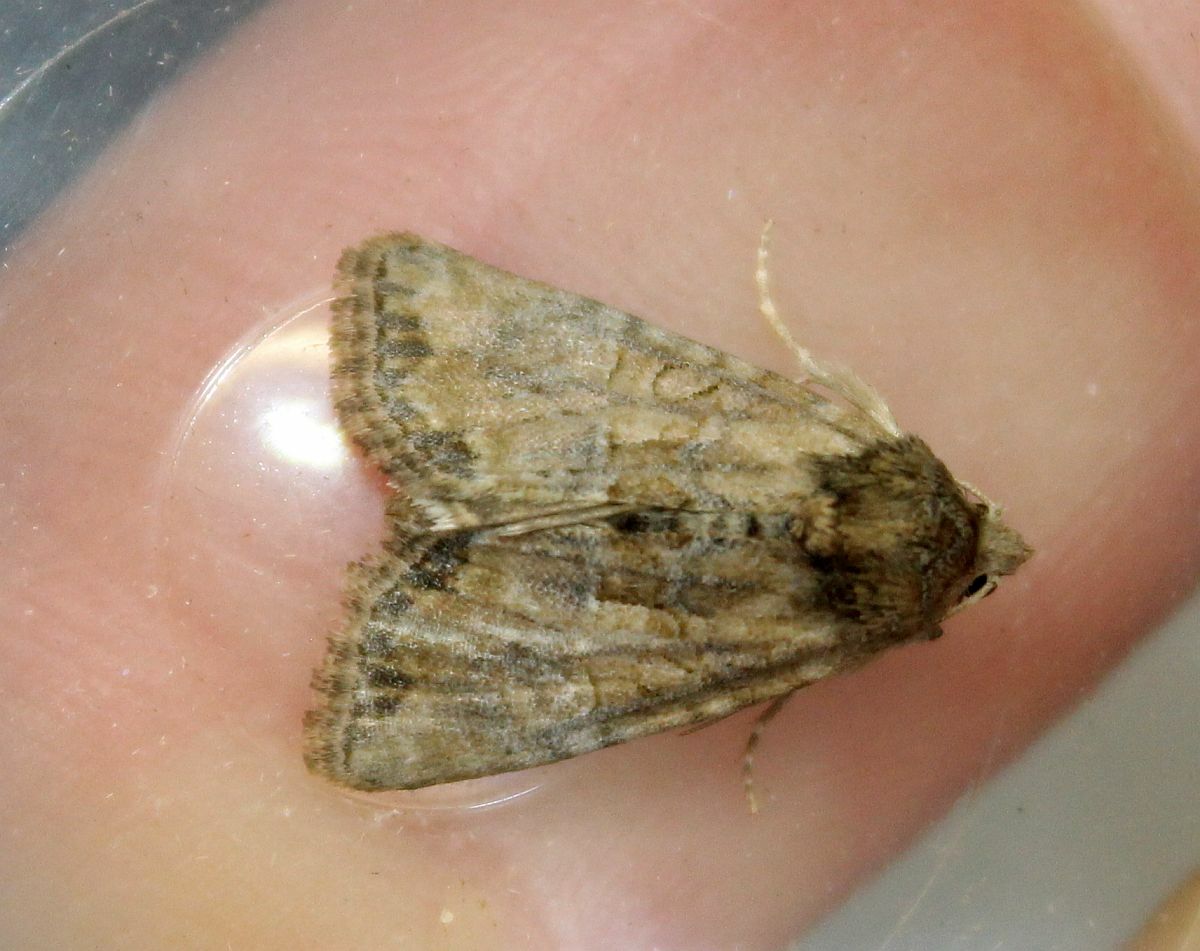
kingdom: Animalia
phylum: Arthropoda
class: Insecta
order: Lepidoptera
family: Noctuidae
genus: Mesoligia
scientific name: Mesoligia furuncula
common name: Cloaked minor
